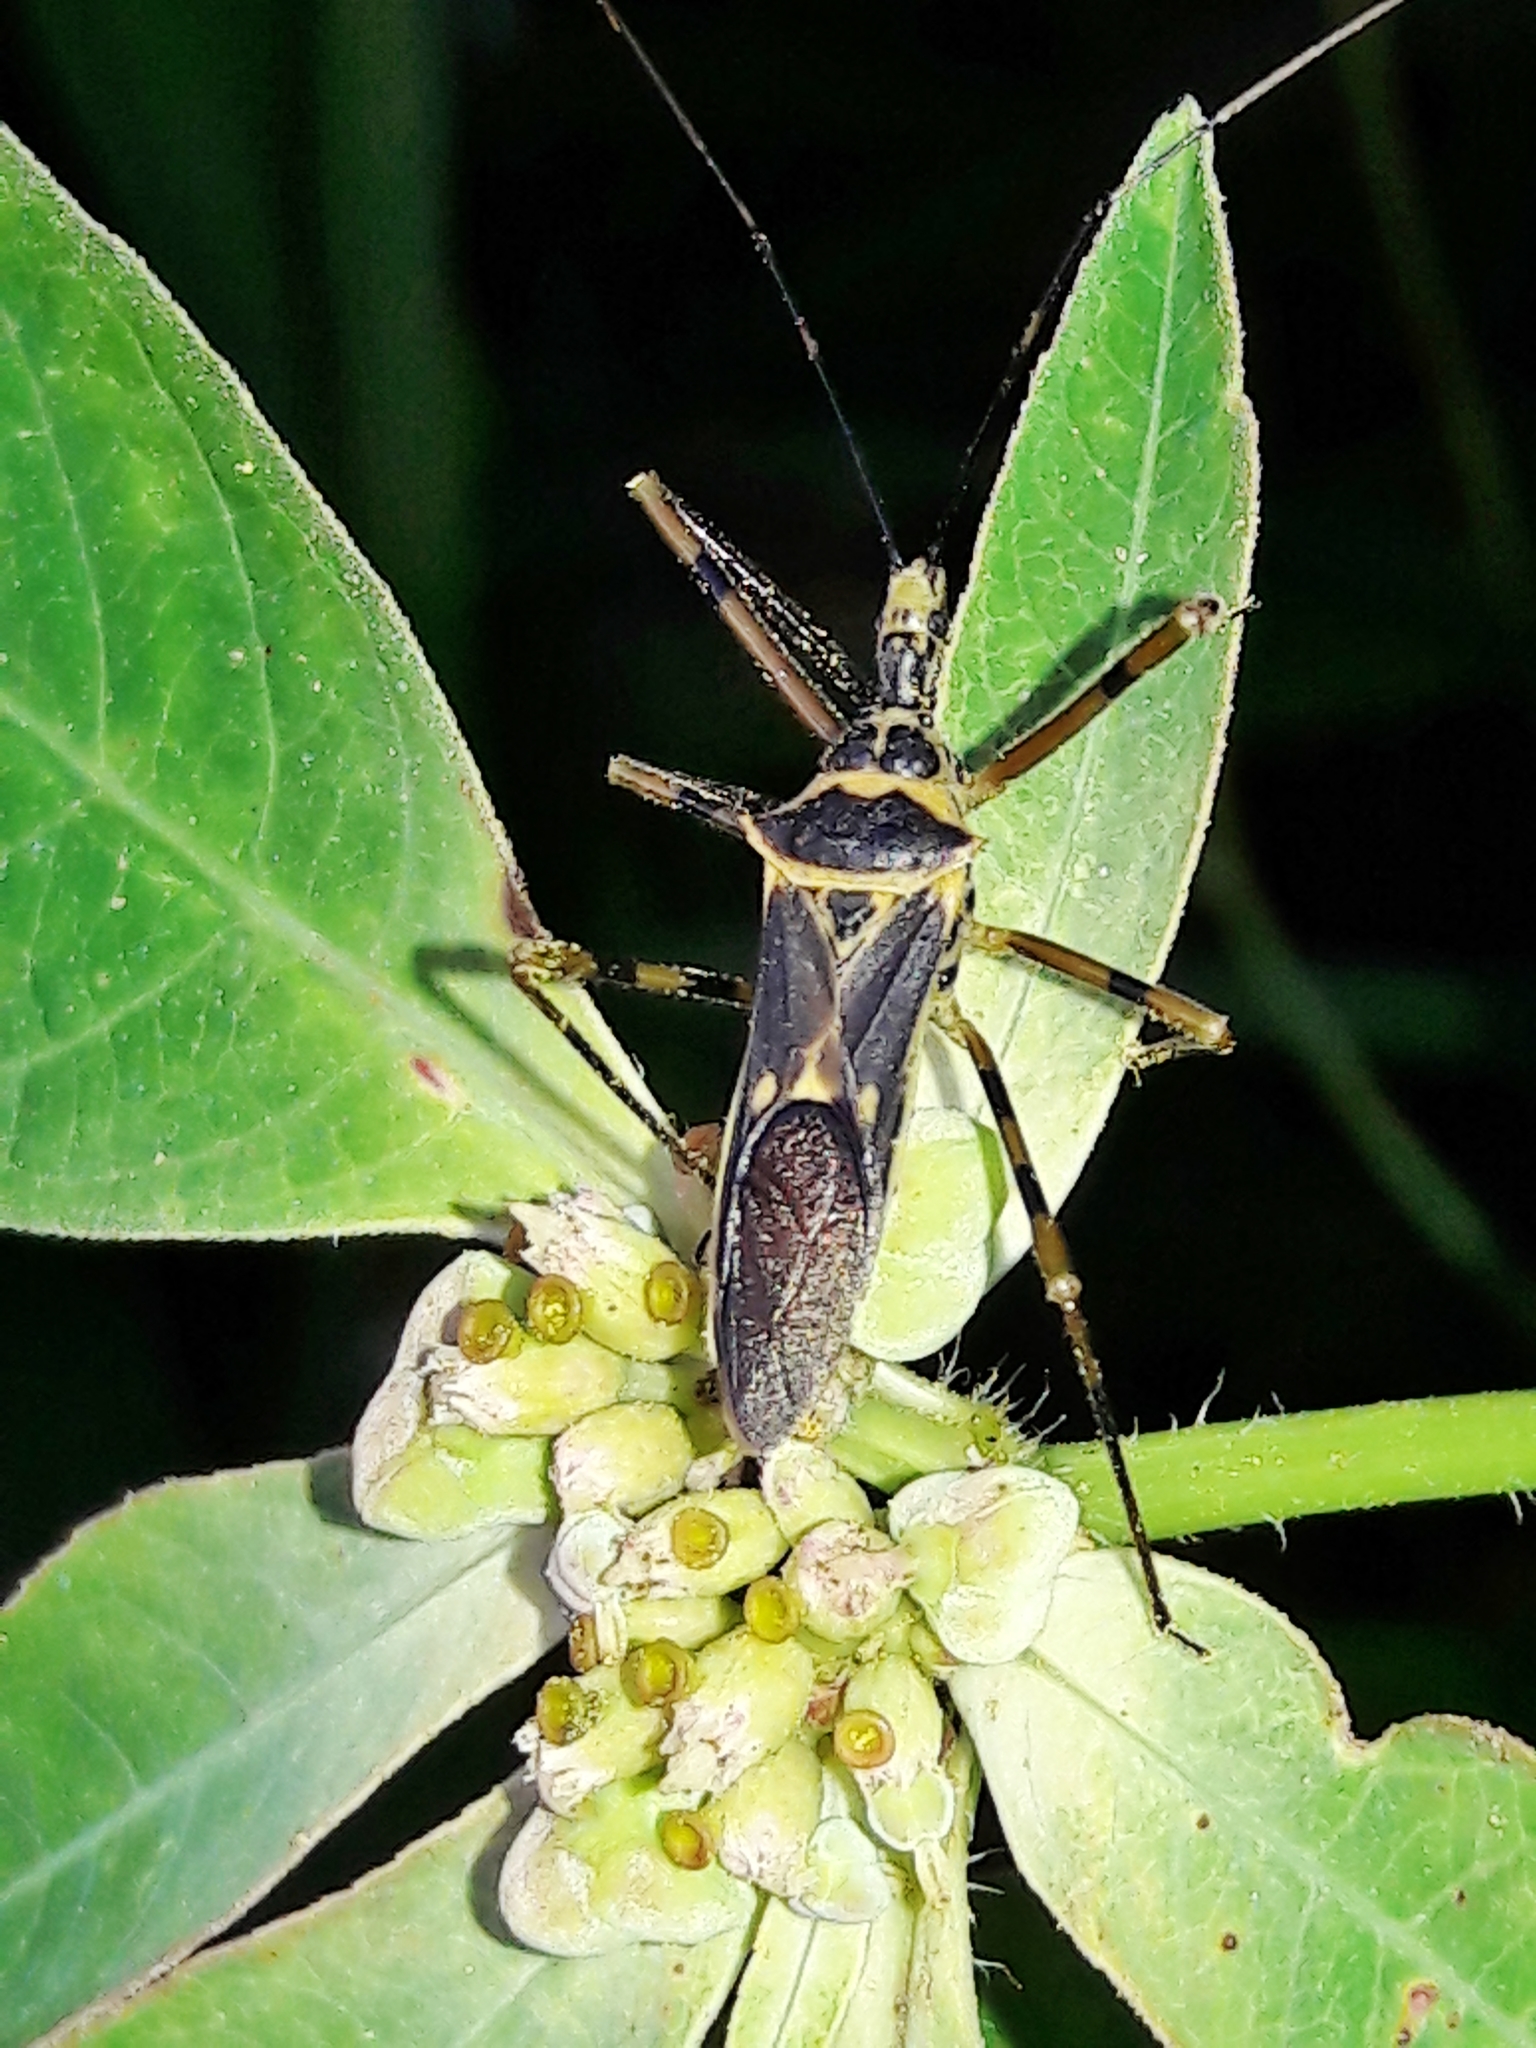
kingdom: Animalia
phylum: Arthropoda
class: Insecta
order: Hemiptera
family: Reduviidae
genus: Zelus
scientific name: Zelus armillatus
